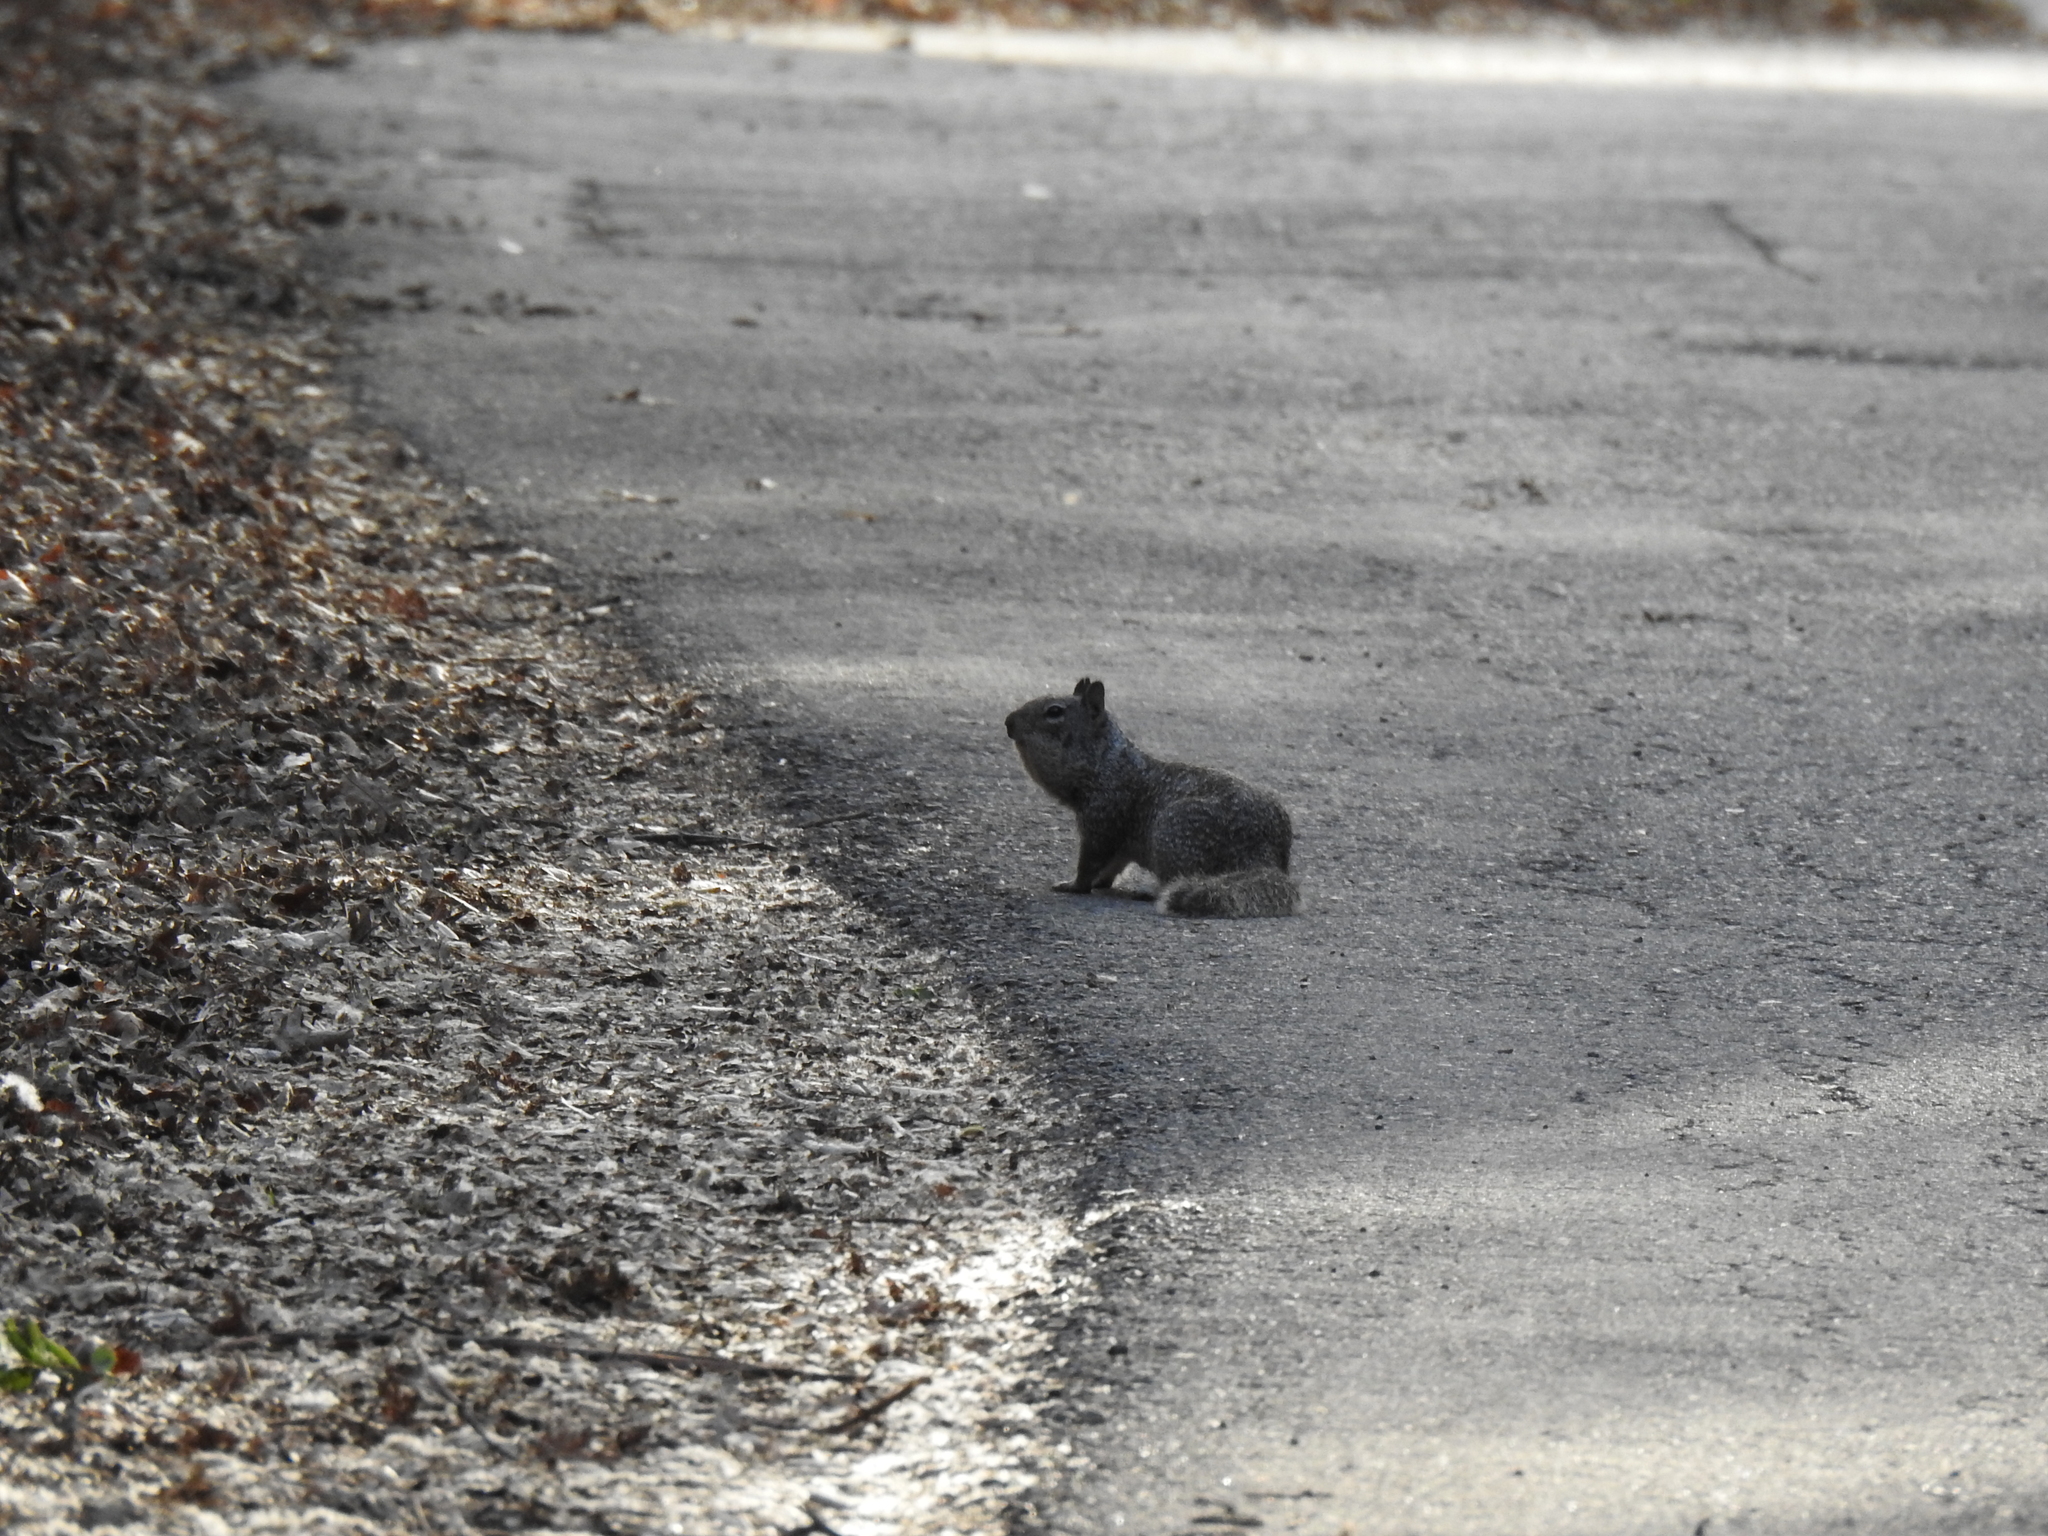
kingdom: Animalia
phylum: Chordata
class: Mammalia
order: Rodentia
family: Sciuridae
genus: Otospermophilus
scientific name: Otospermophilus beecheyi
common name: California ground squirrel
